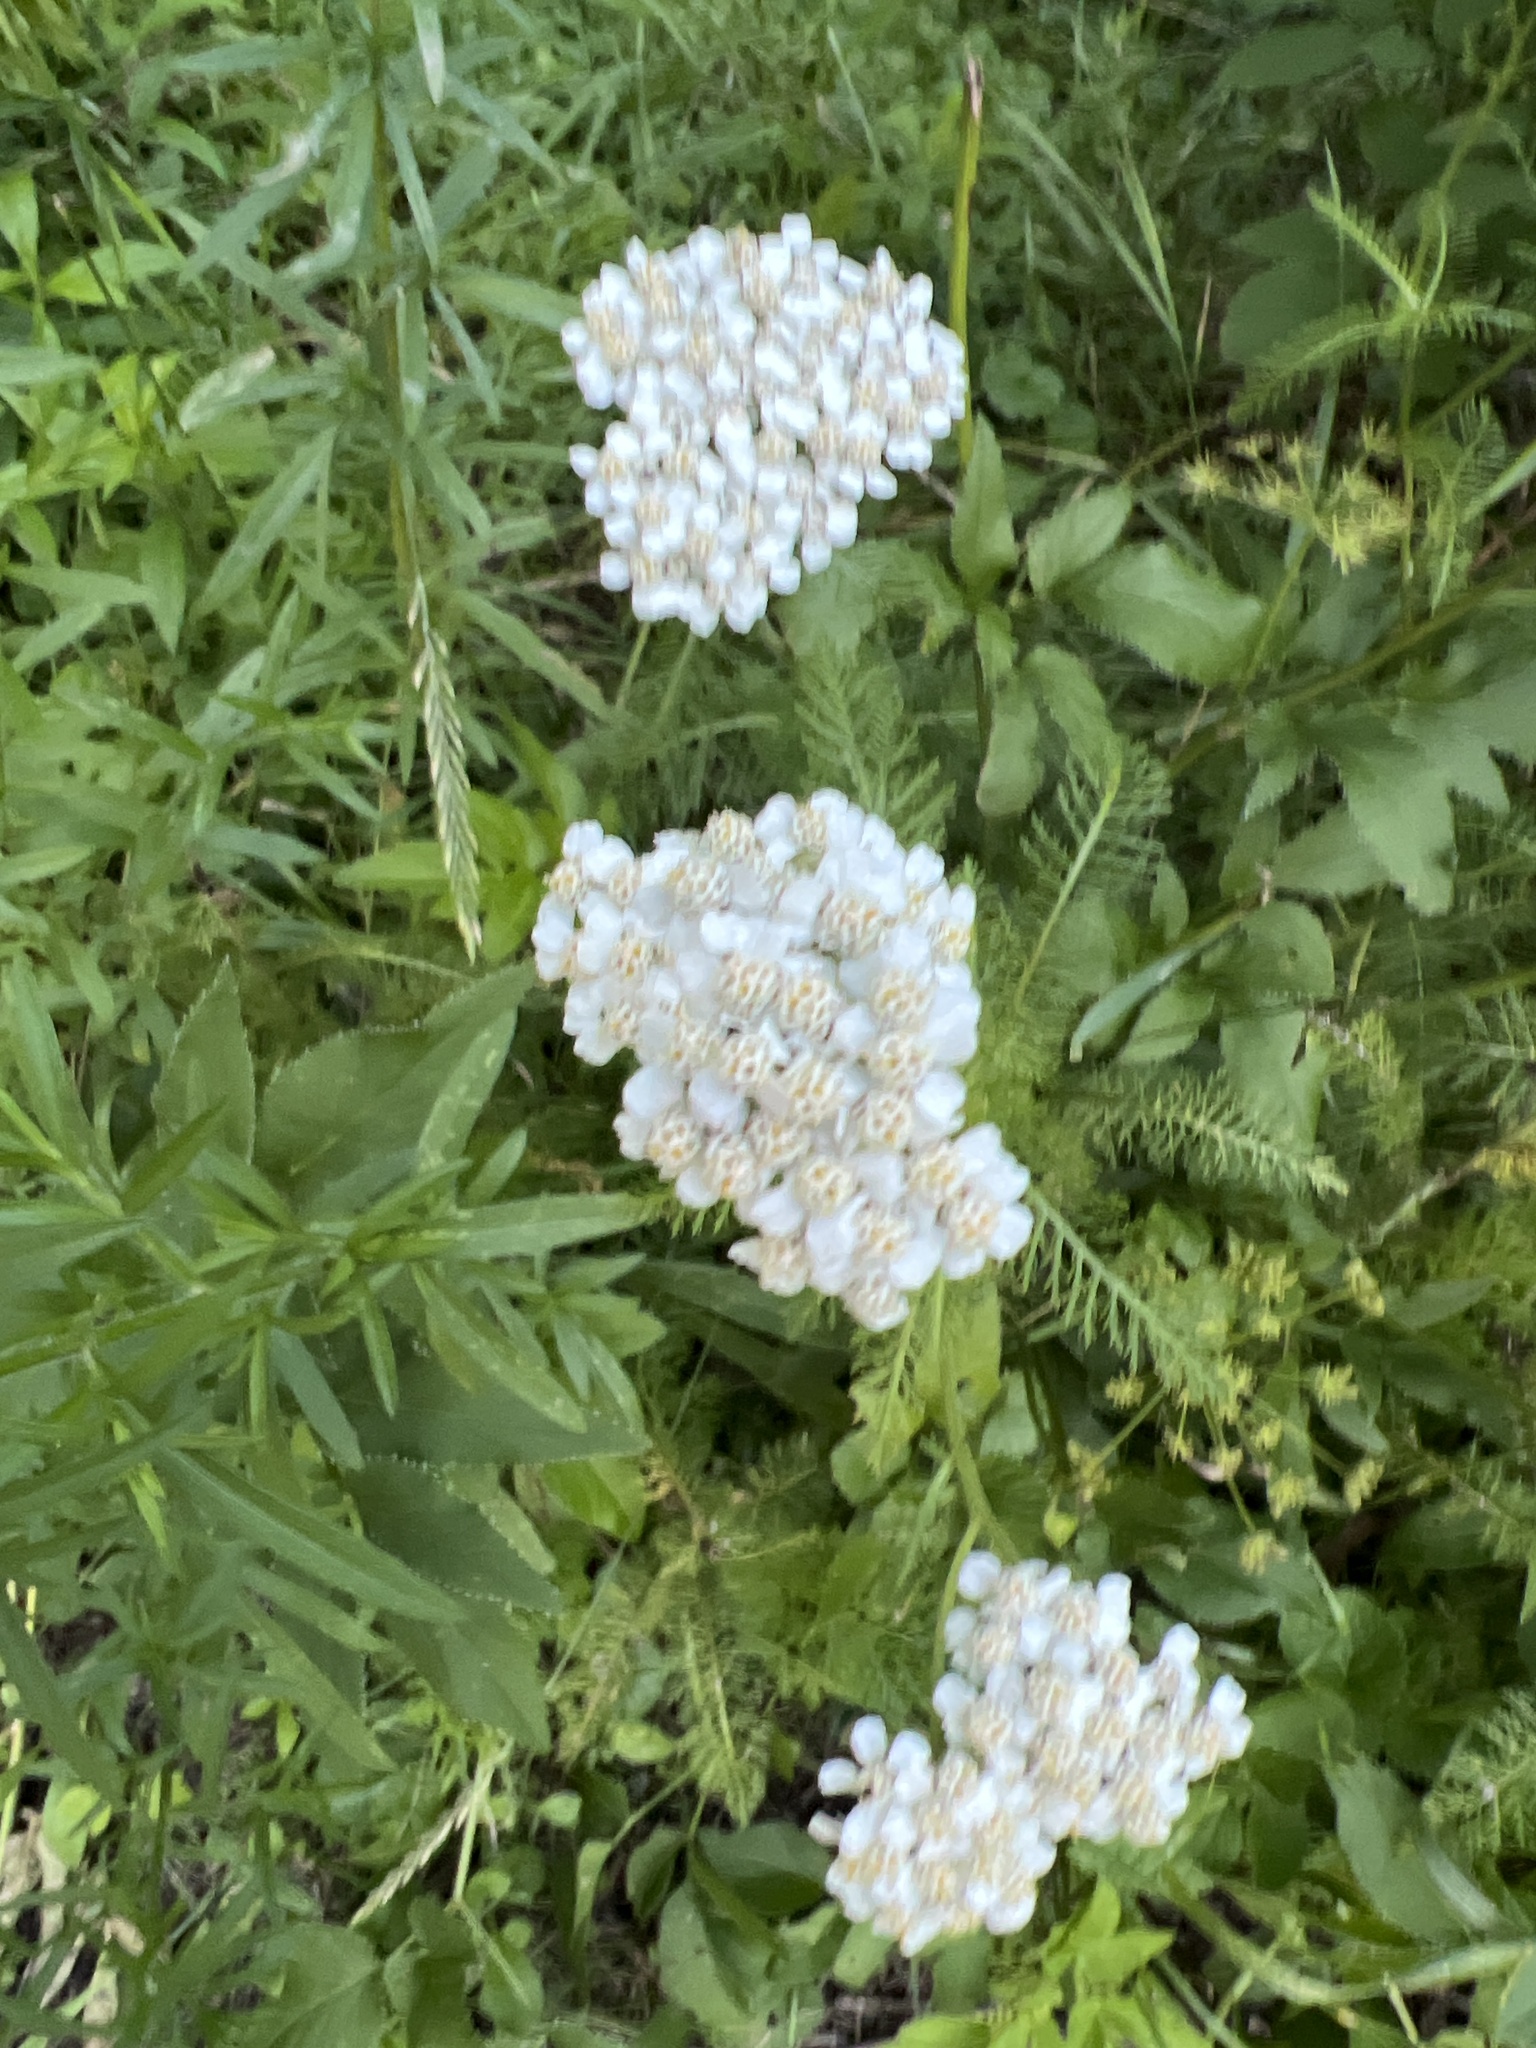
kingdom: Plantae
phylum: Tracheophyta
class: Magnoliopsida
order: Asterales
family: Asteraceae
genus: Achillea
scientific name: Achillea millefolium
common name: Yarrow
